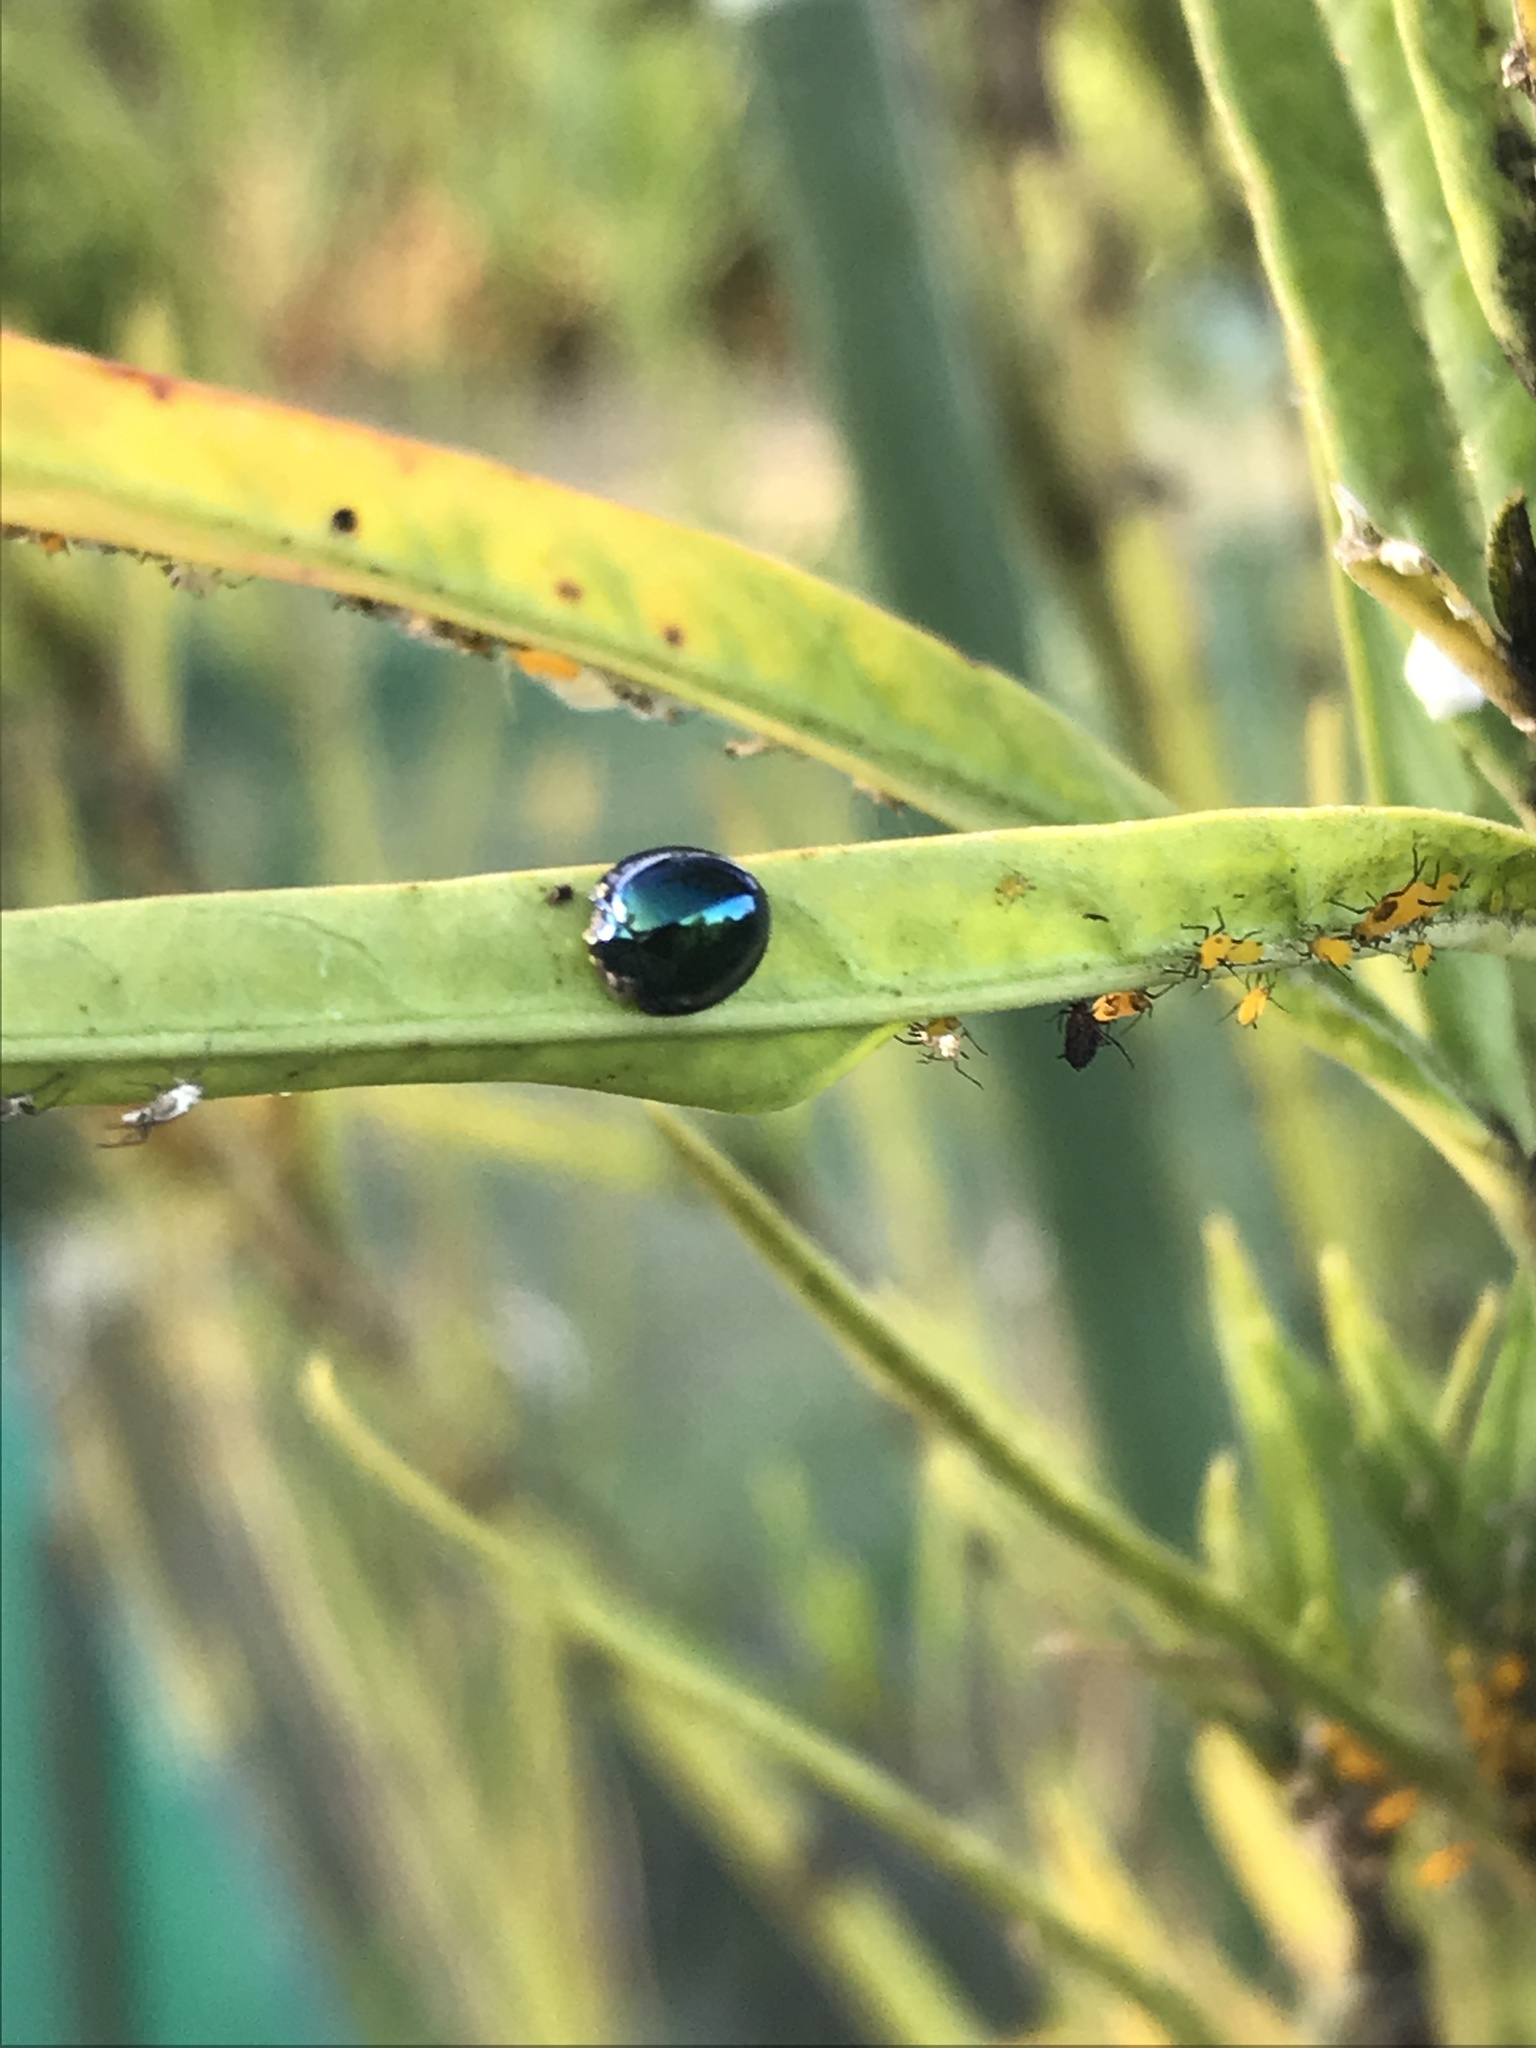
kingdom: Animalia
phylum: Arthropoda
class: Insecta
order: Coleoptera
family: Coccinellidae
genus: Halmus
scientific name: Halmus chalybeus
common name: Steel blue ladybird beetle
